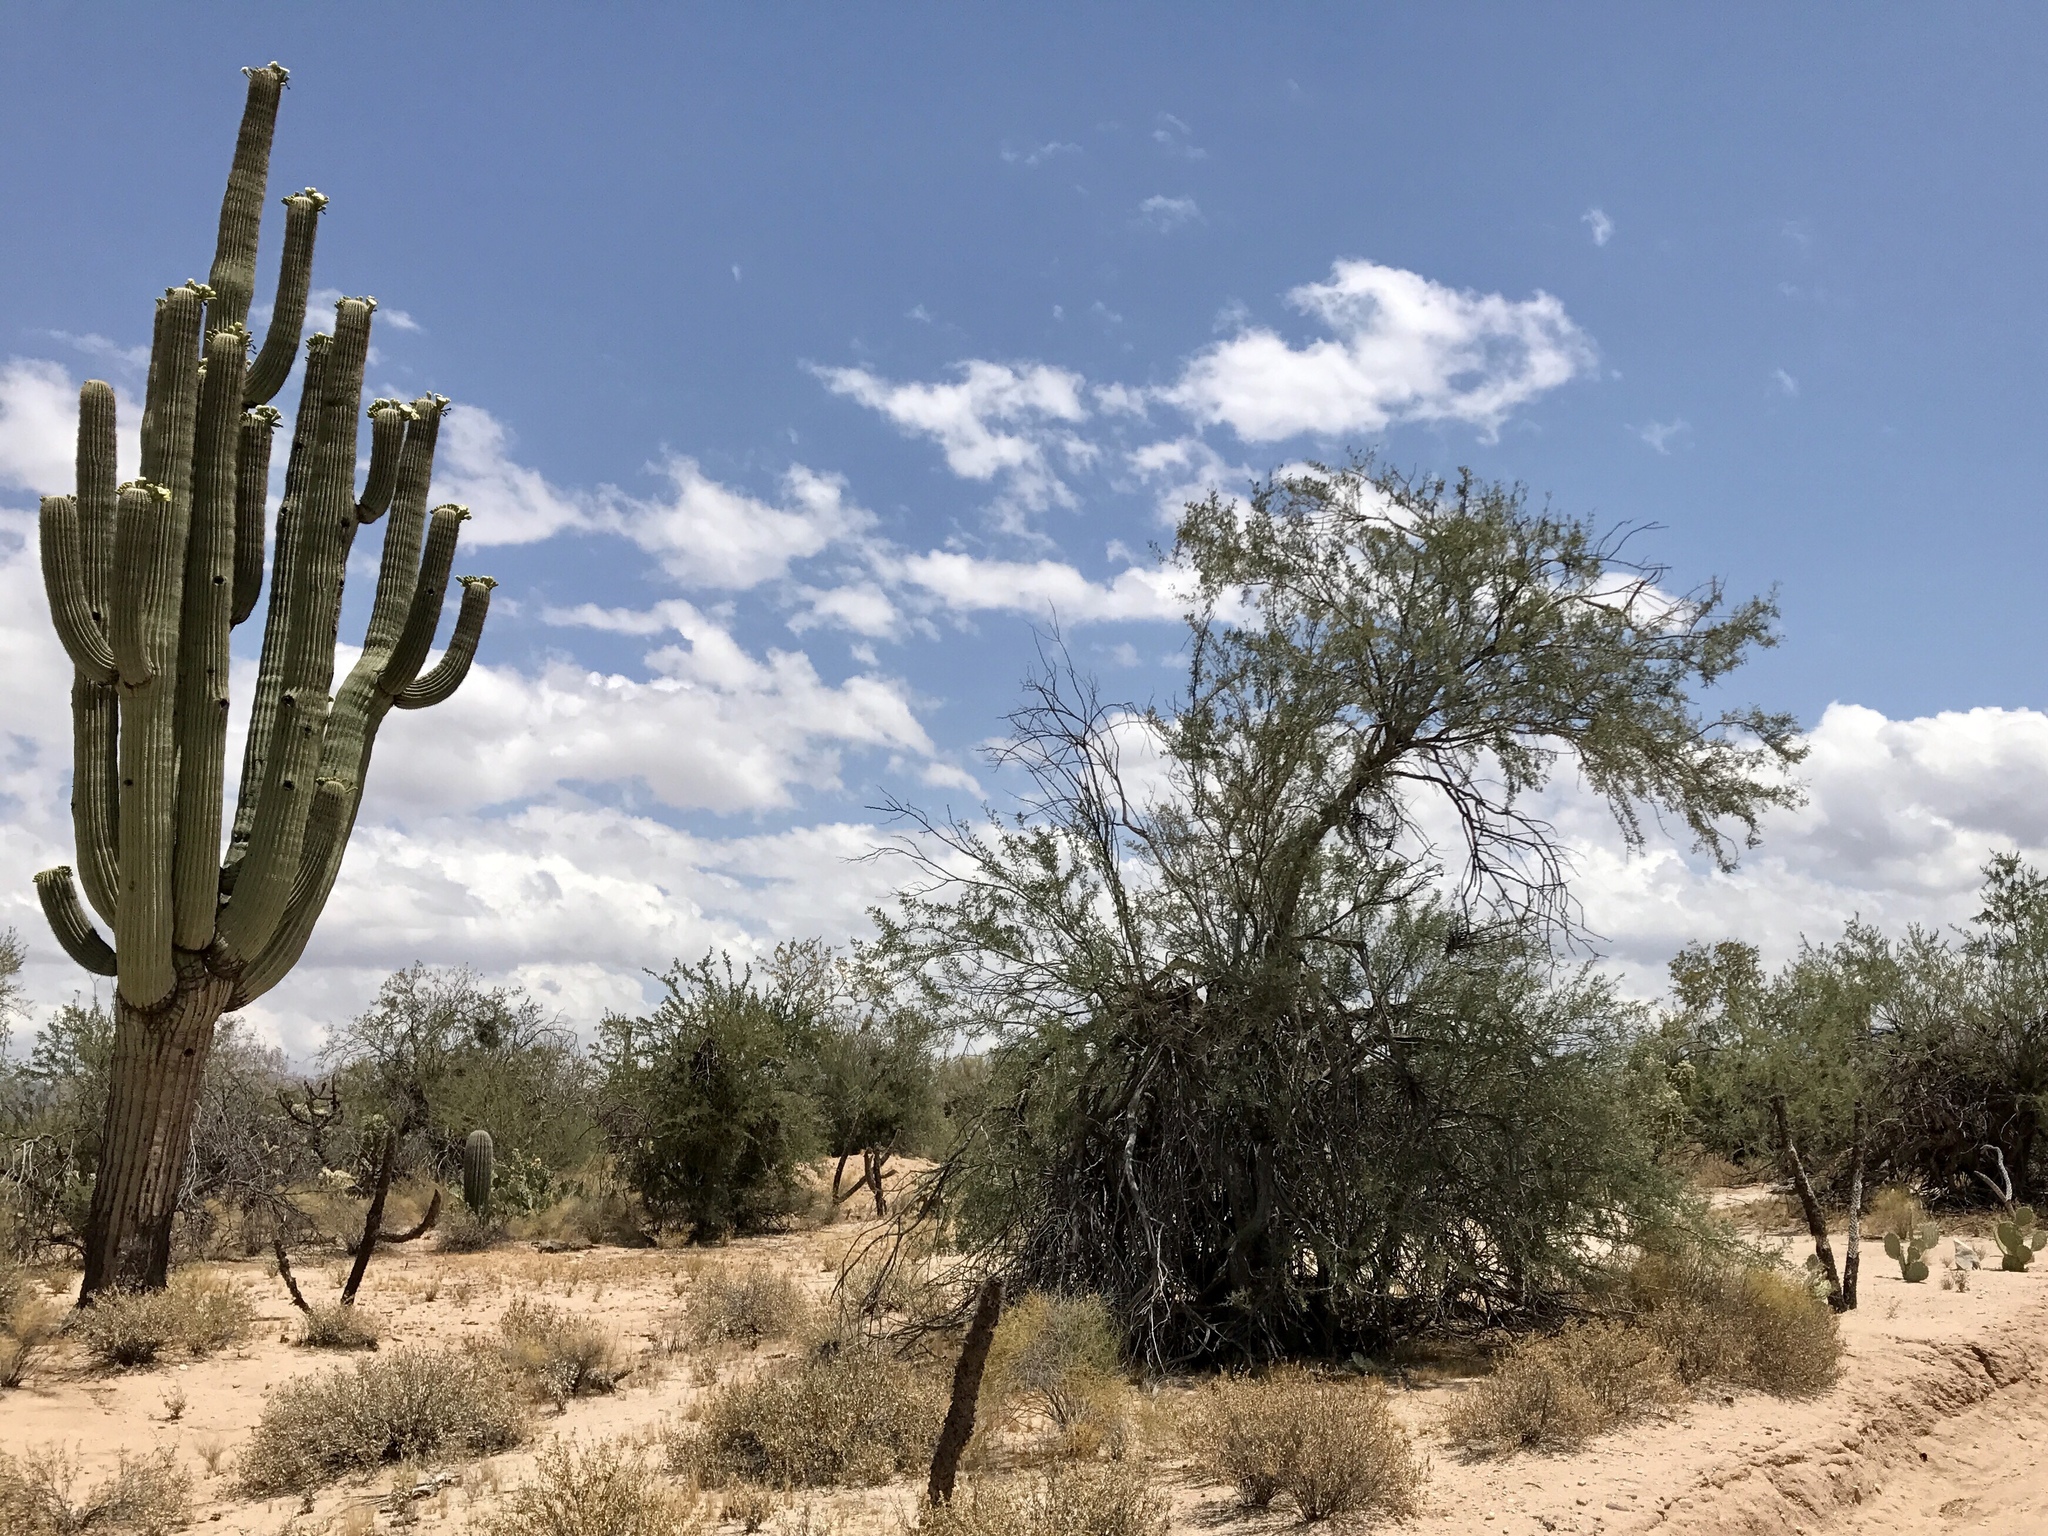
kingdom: Plantae
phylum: Tracheophyta
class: Magnoliopsida
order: Caryophyllales
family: Cactaceae
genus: Carnegiea
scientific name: Carnegiea gigantea
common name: Saguaro
